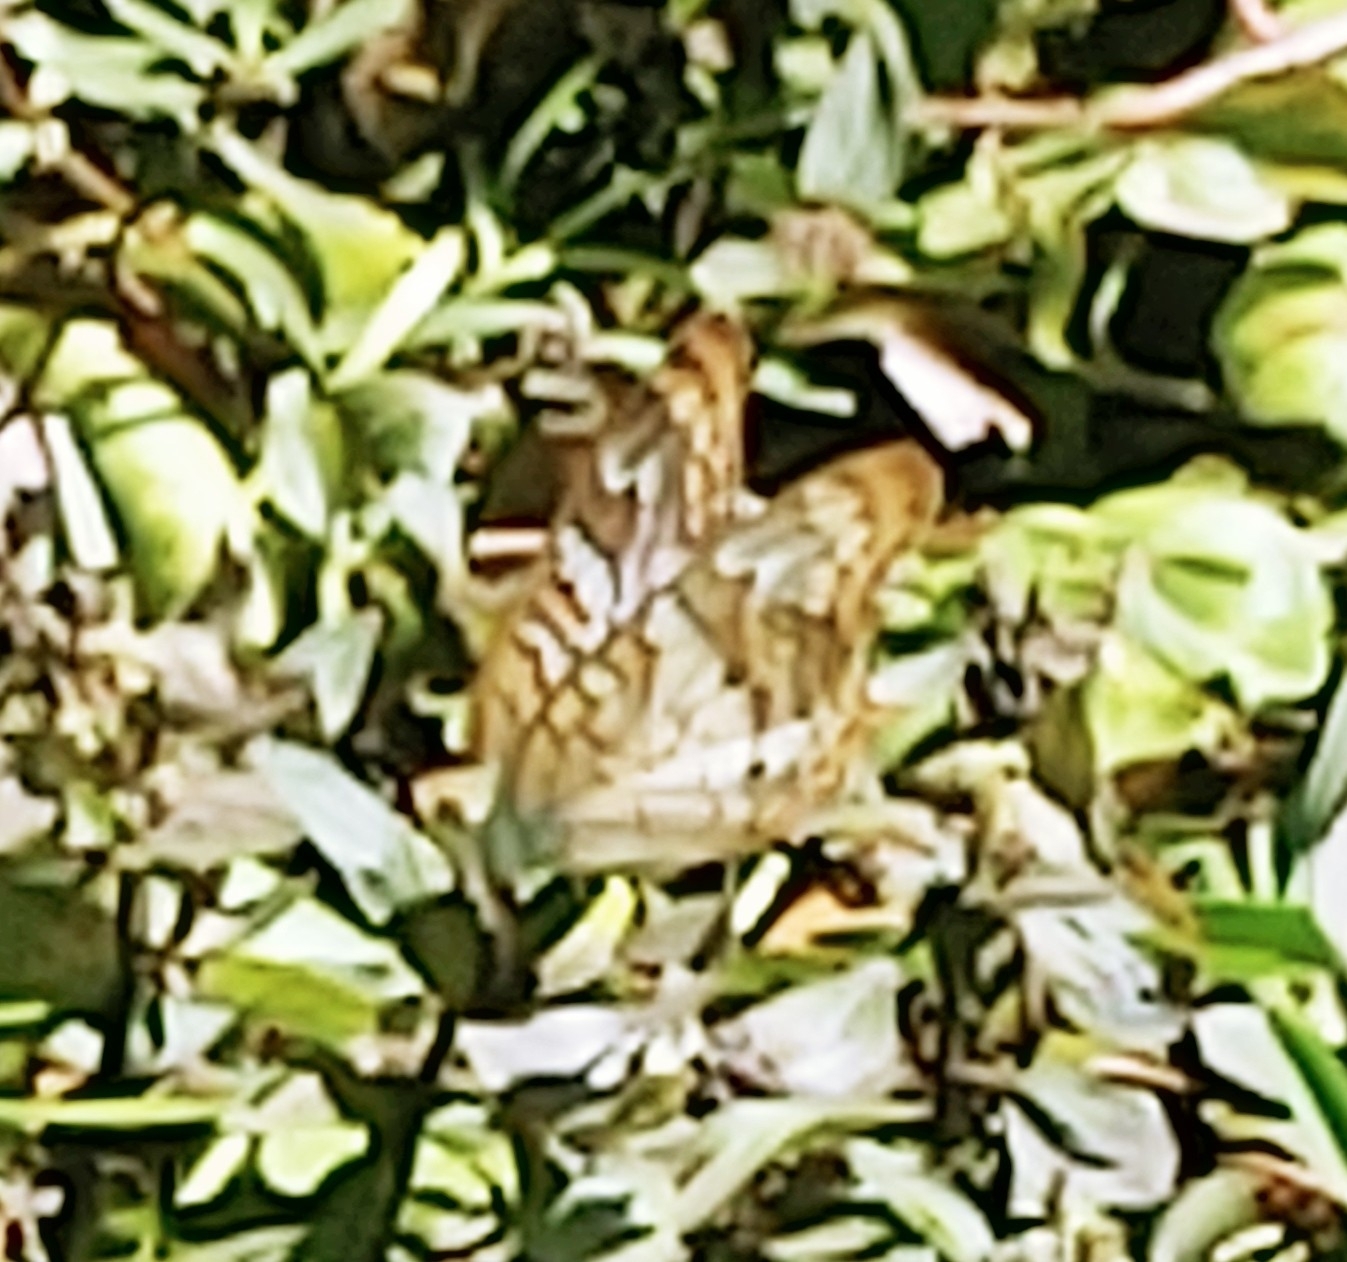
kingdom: Animalia
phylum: Arthropoda
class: Insecta
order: Lepidoptera
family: Nymphalidae
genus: Anartia
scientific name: Anartia jatrophae
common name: White peacock
